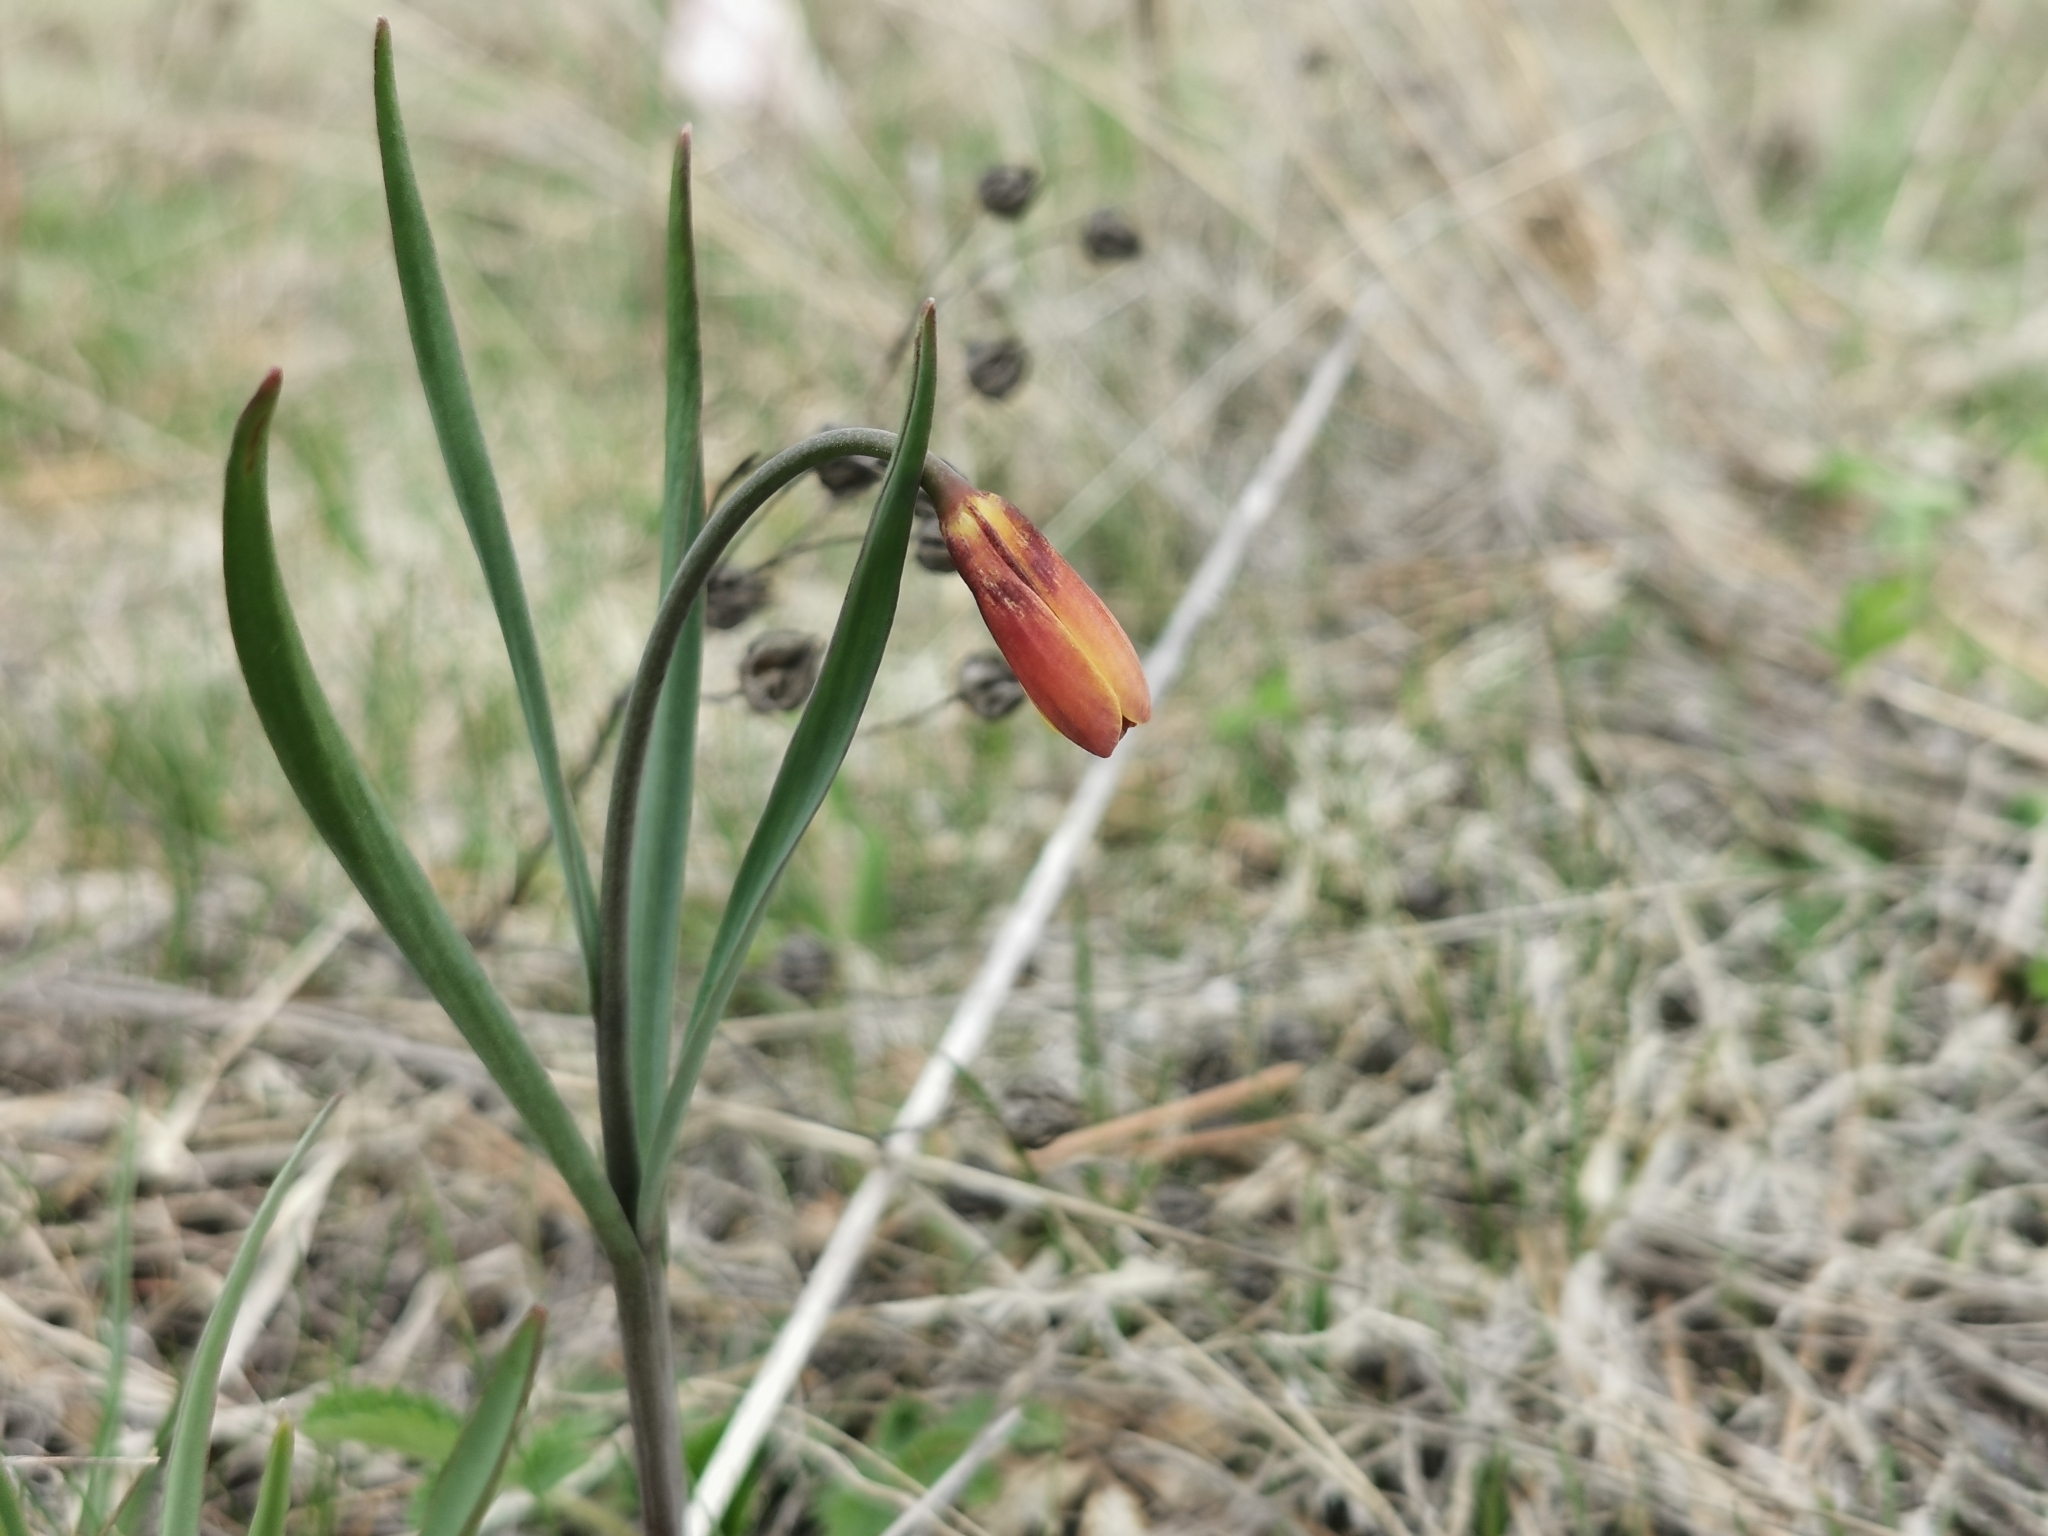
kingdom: Plantae
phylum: Tracheophyta
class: Liliopsida
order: Liliales
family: Liliaceae
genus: Fritillaria
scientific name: Fritillaria pudica
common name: Yellow fritillary
